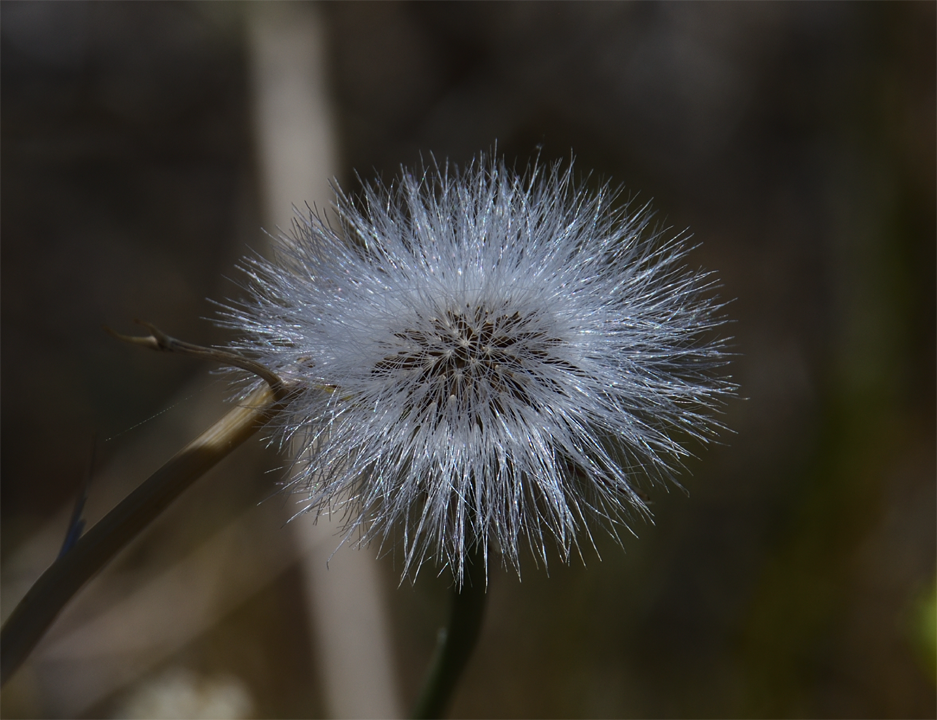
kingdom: Plantae
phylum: Tracheophyta
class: Magnoliopsida
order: Asterales
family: Asteraceae
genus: Malacothrix
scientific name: Malacothrix glabrata
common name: Smooth desert-dandelion
